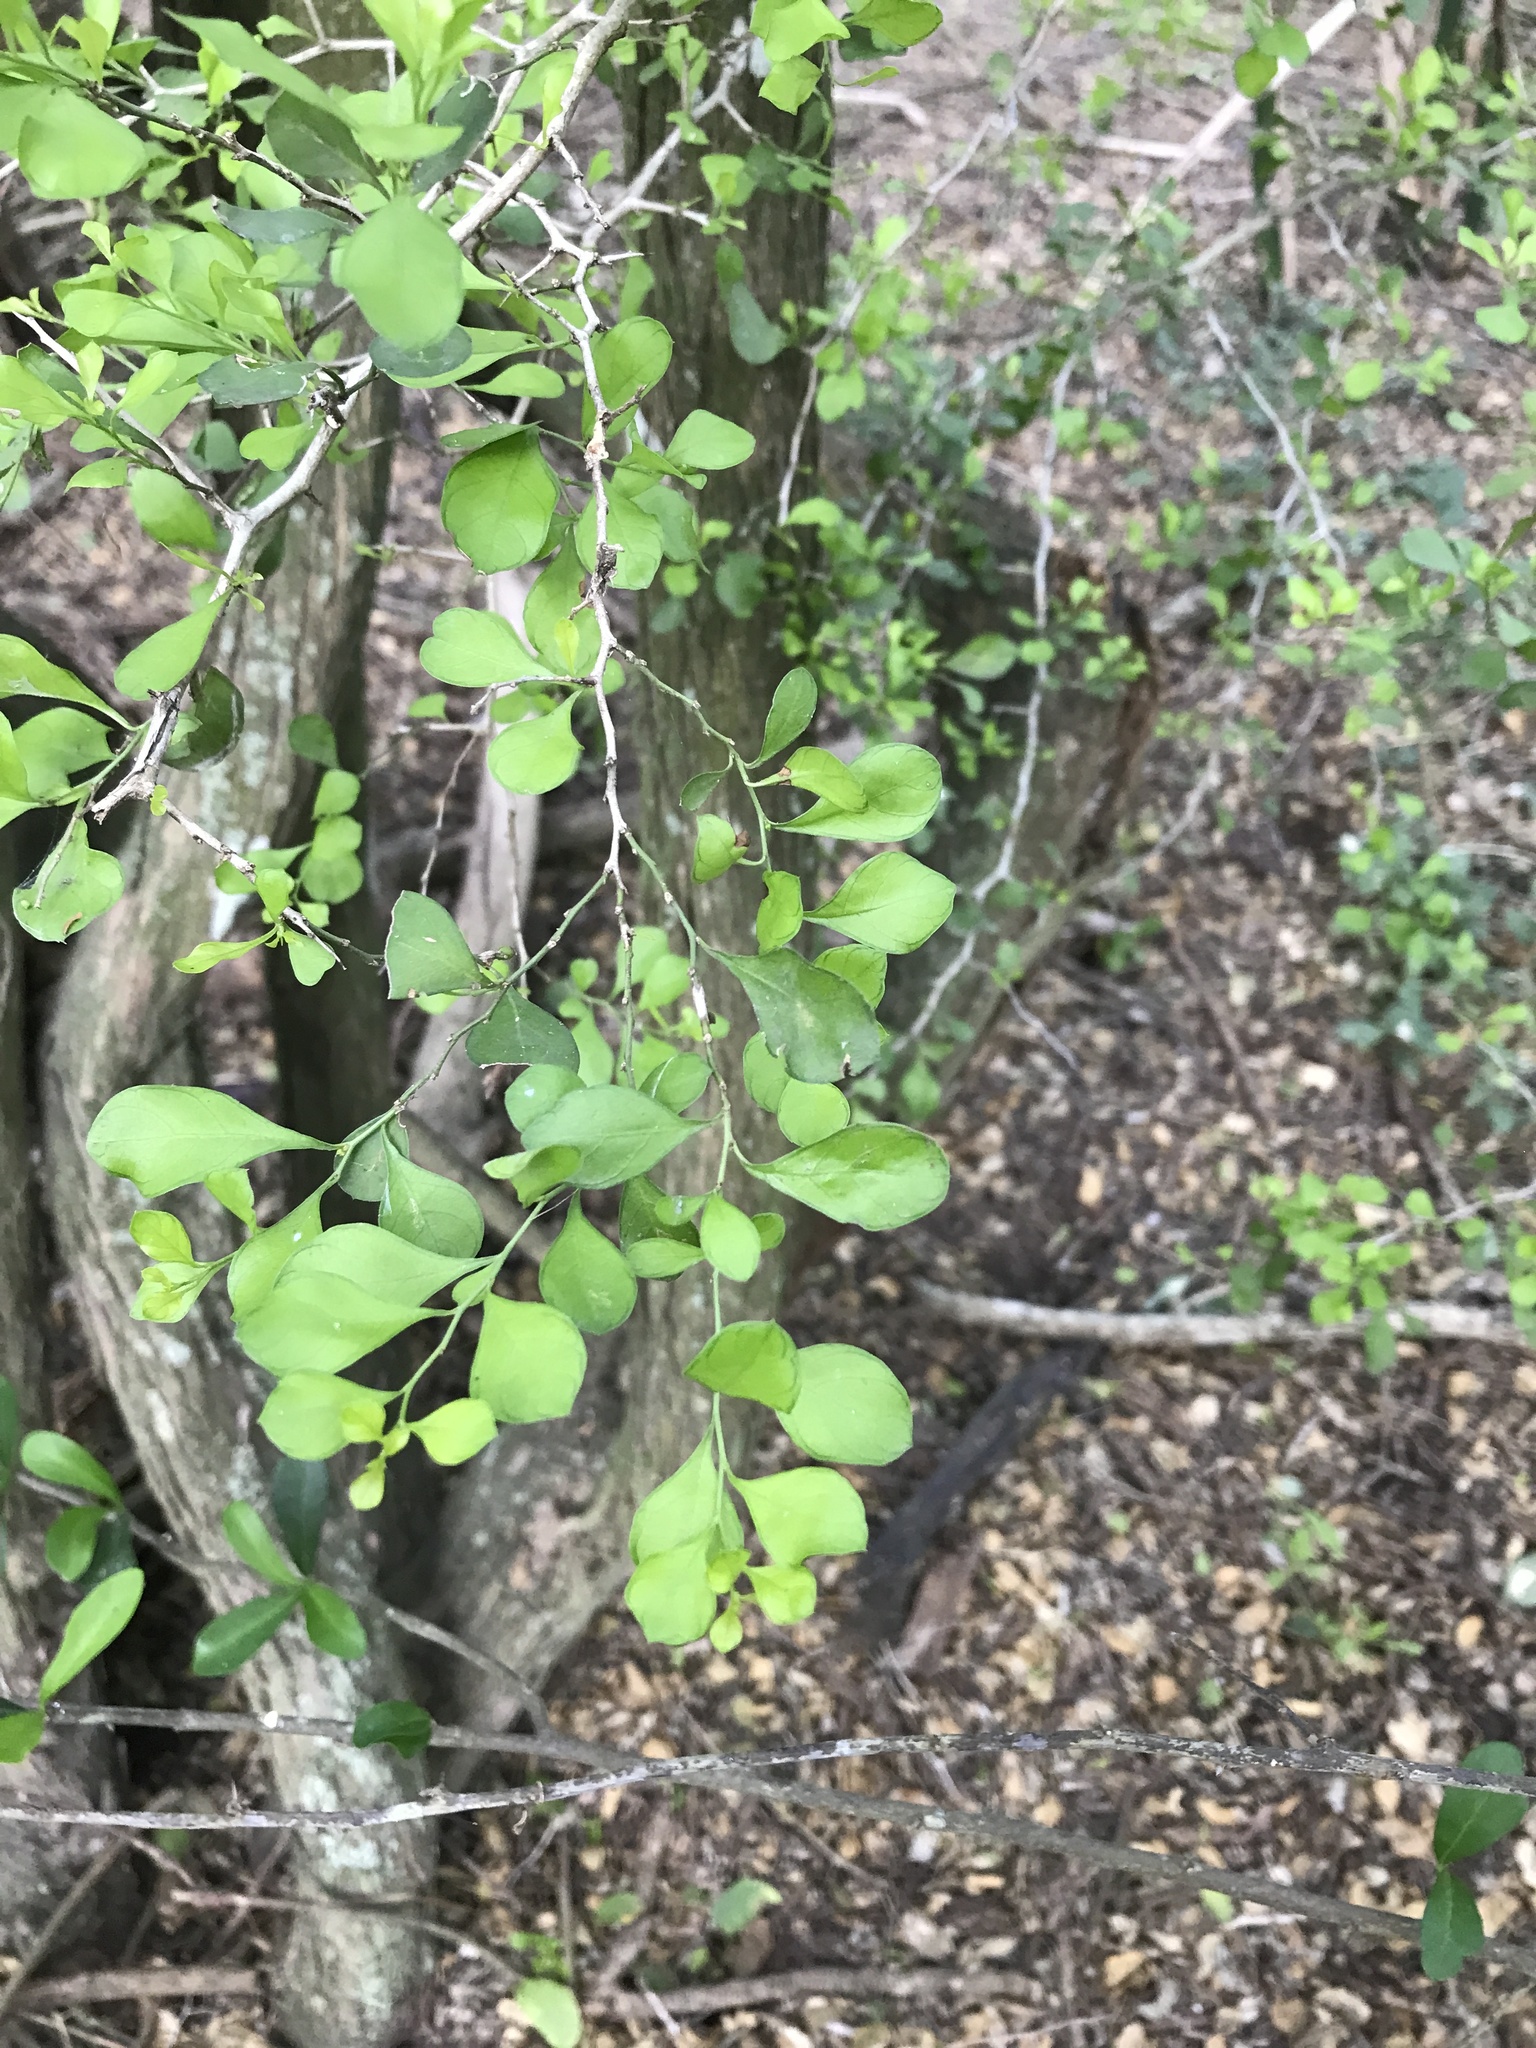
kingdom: Plantae
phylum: Tracheophyta
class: Magnoliopsida
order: Rosales
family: Rhamnaceae
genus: Condalia
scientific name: Condalia hookeri
